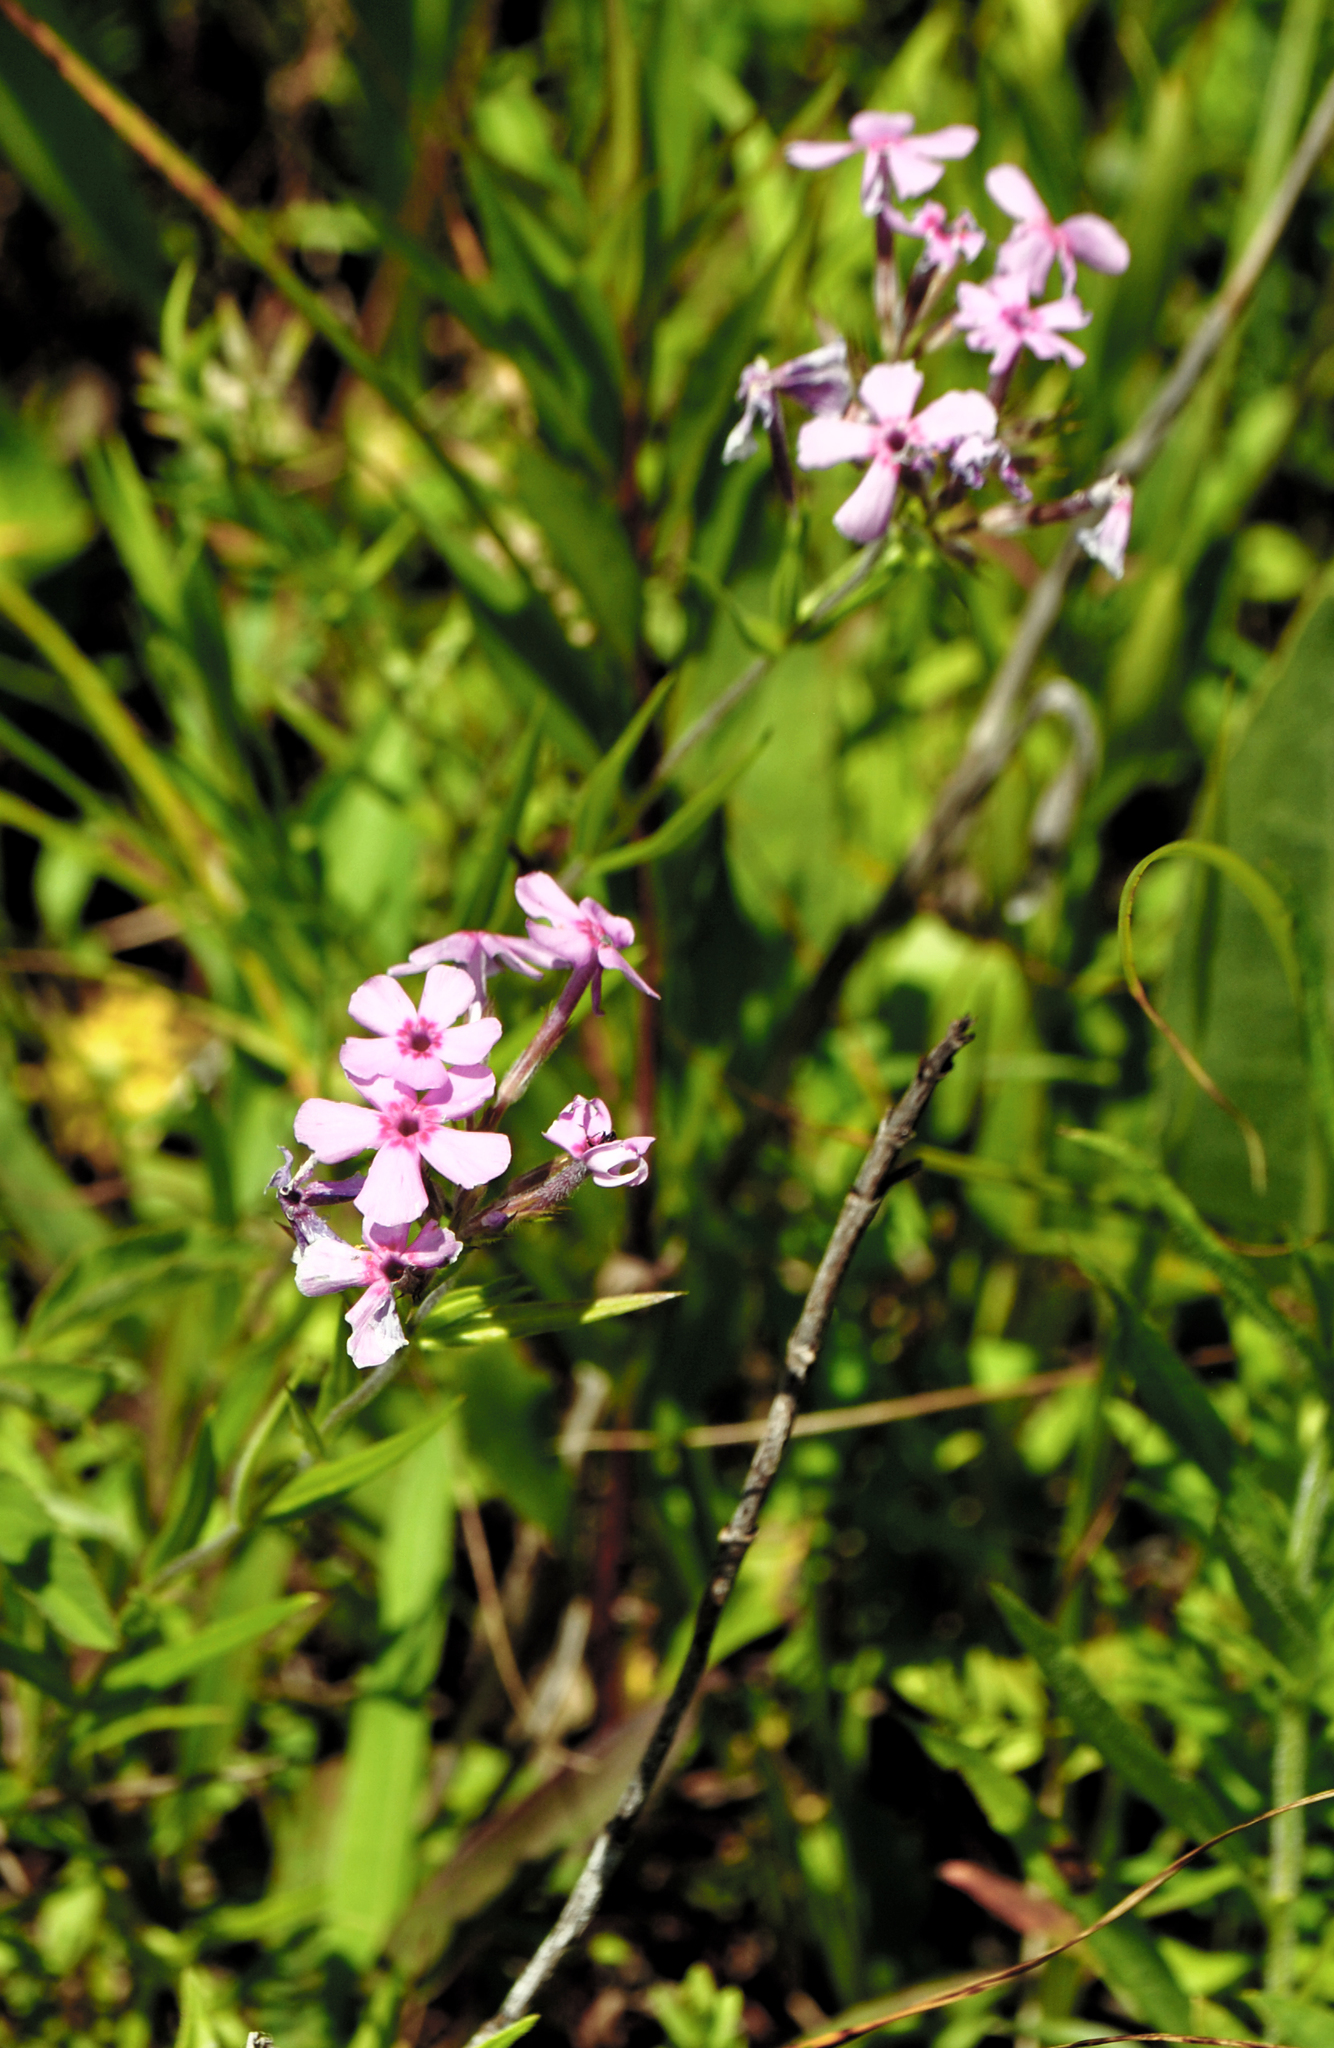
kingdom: Plantae
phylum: Tracheophyta
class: Magnoliopsida
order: Ericales
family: Polemoniaceae
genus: Phlox
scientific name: Phlox pilosa
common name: Prairie phlox
